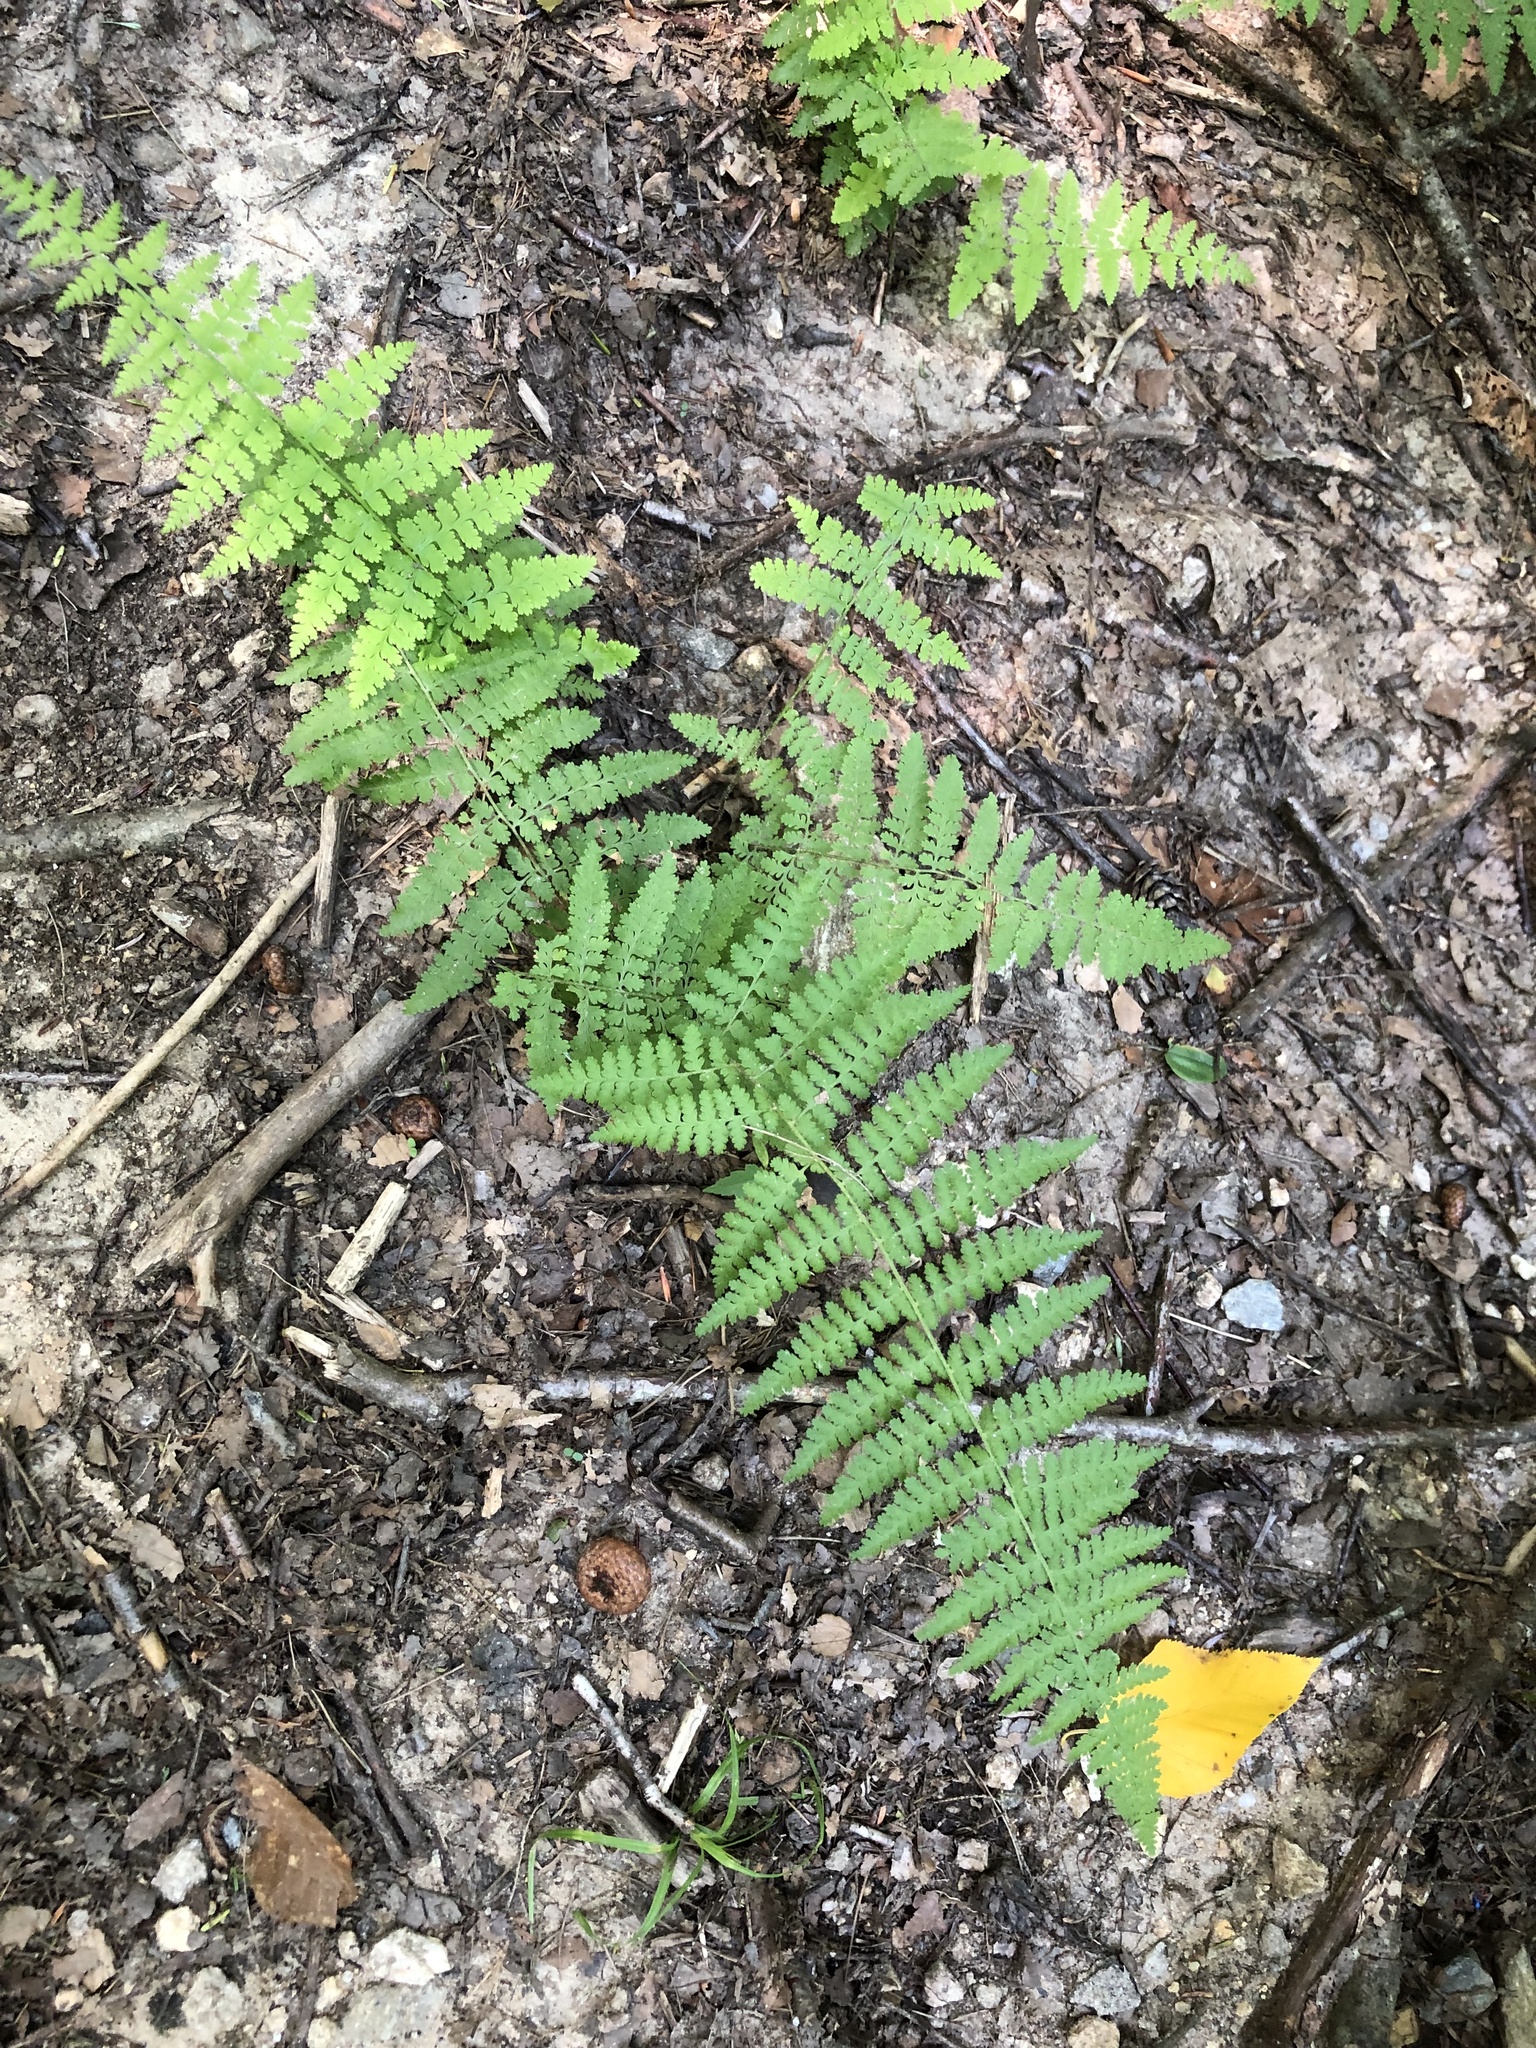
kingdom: Plantae
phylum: Tracheophyta
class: Polypodiopsida
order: Polypodiales
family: Dennstaedtiaceae
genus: Sitobolium
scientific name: Sitobolium punctilobum
